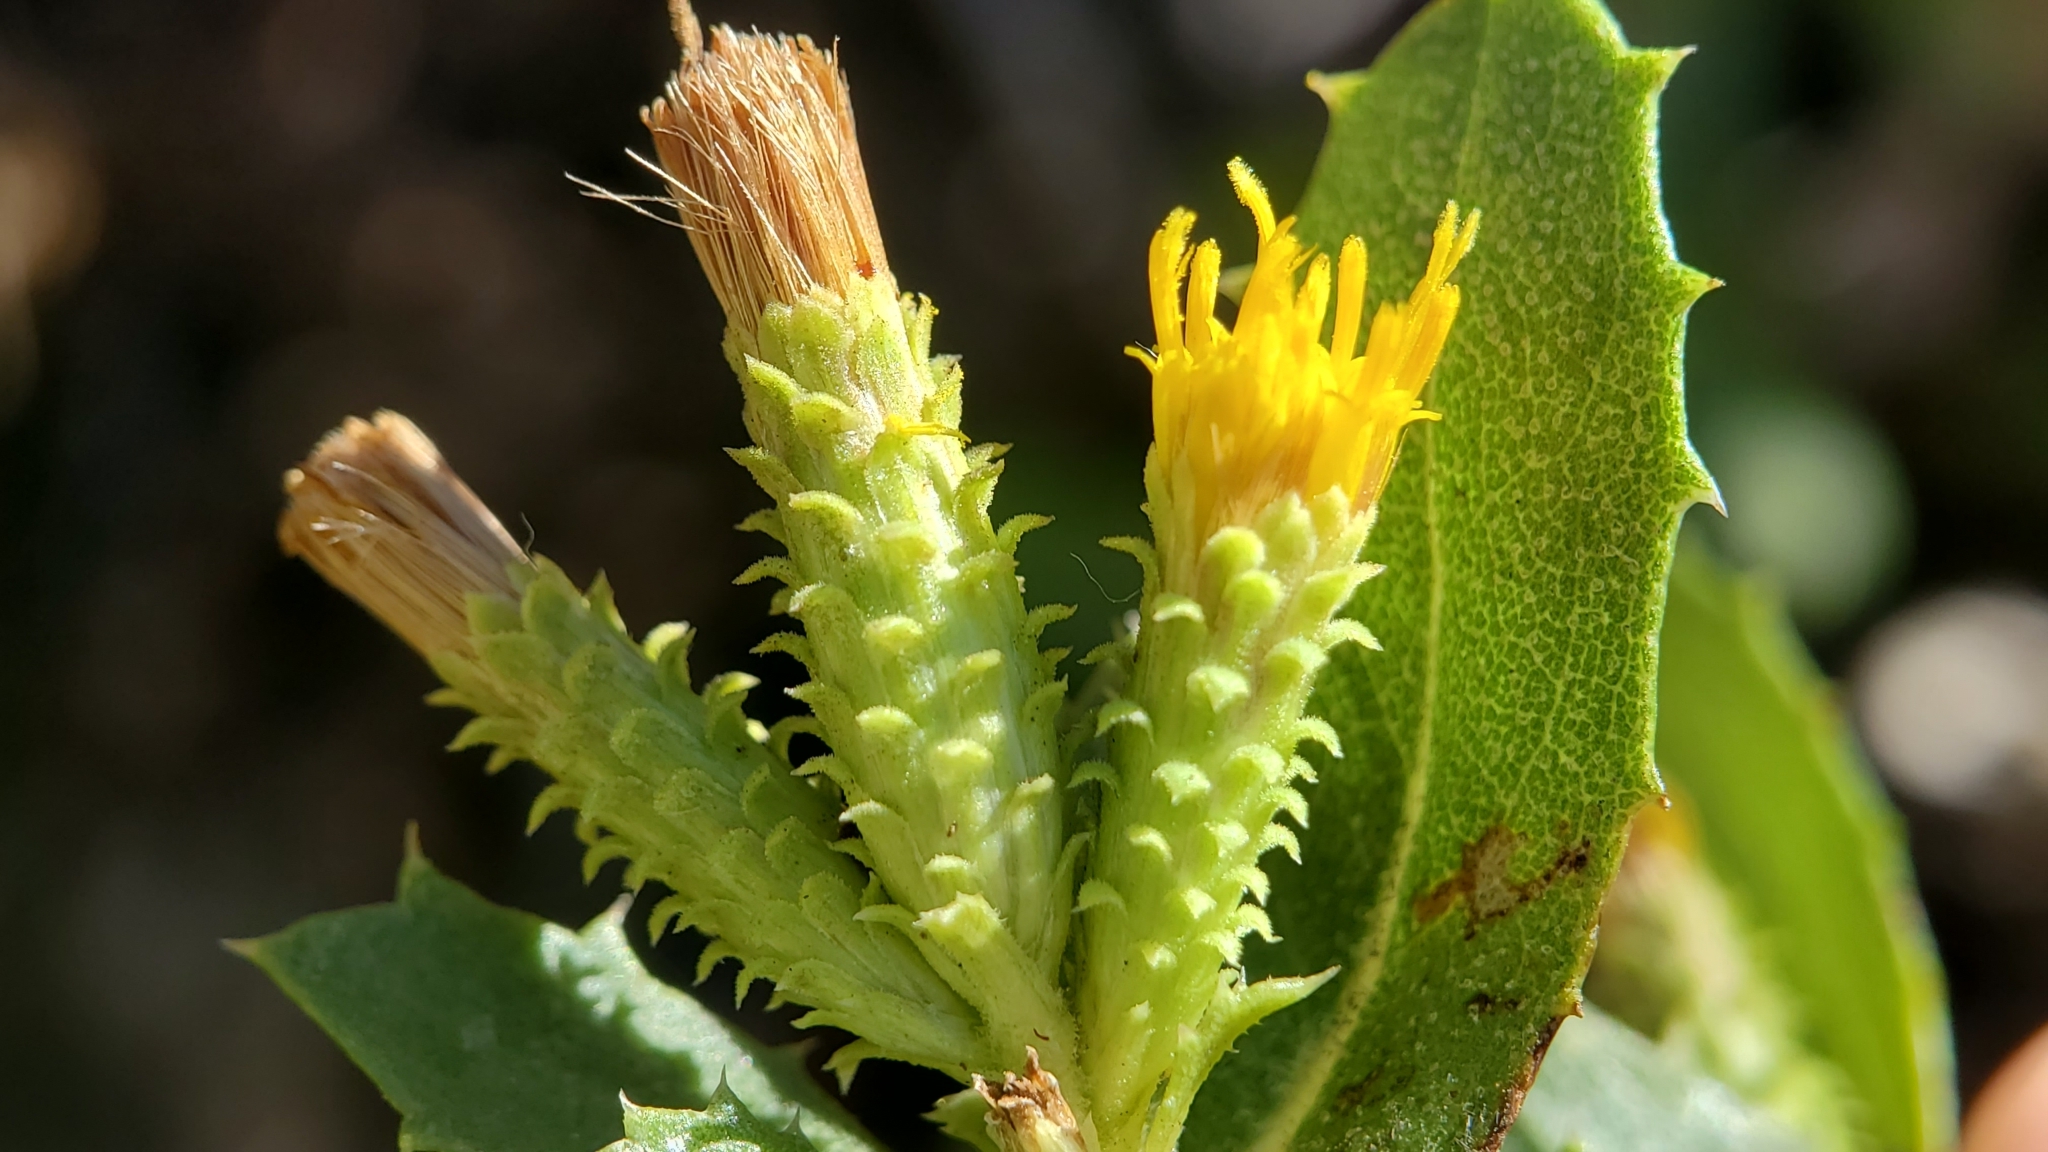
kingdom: Plantae
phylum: Tracheophyta
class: Magnoliopsida
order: Asterales
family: Asteraceae
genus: Hazardia
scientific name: Hazardia squarrosa
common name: Saw-tooth goldenbush
